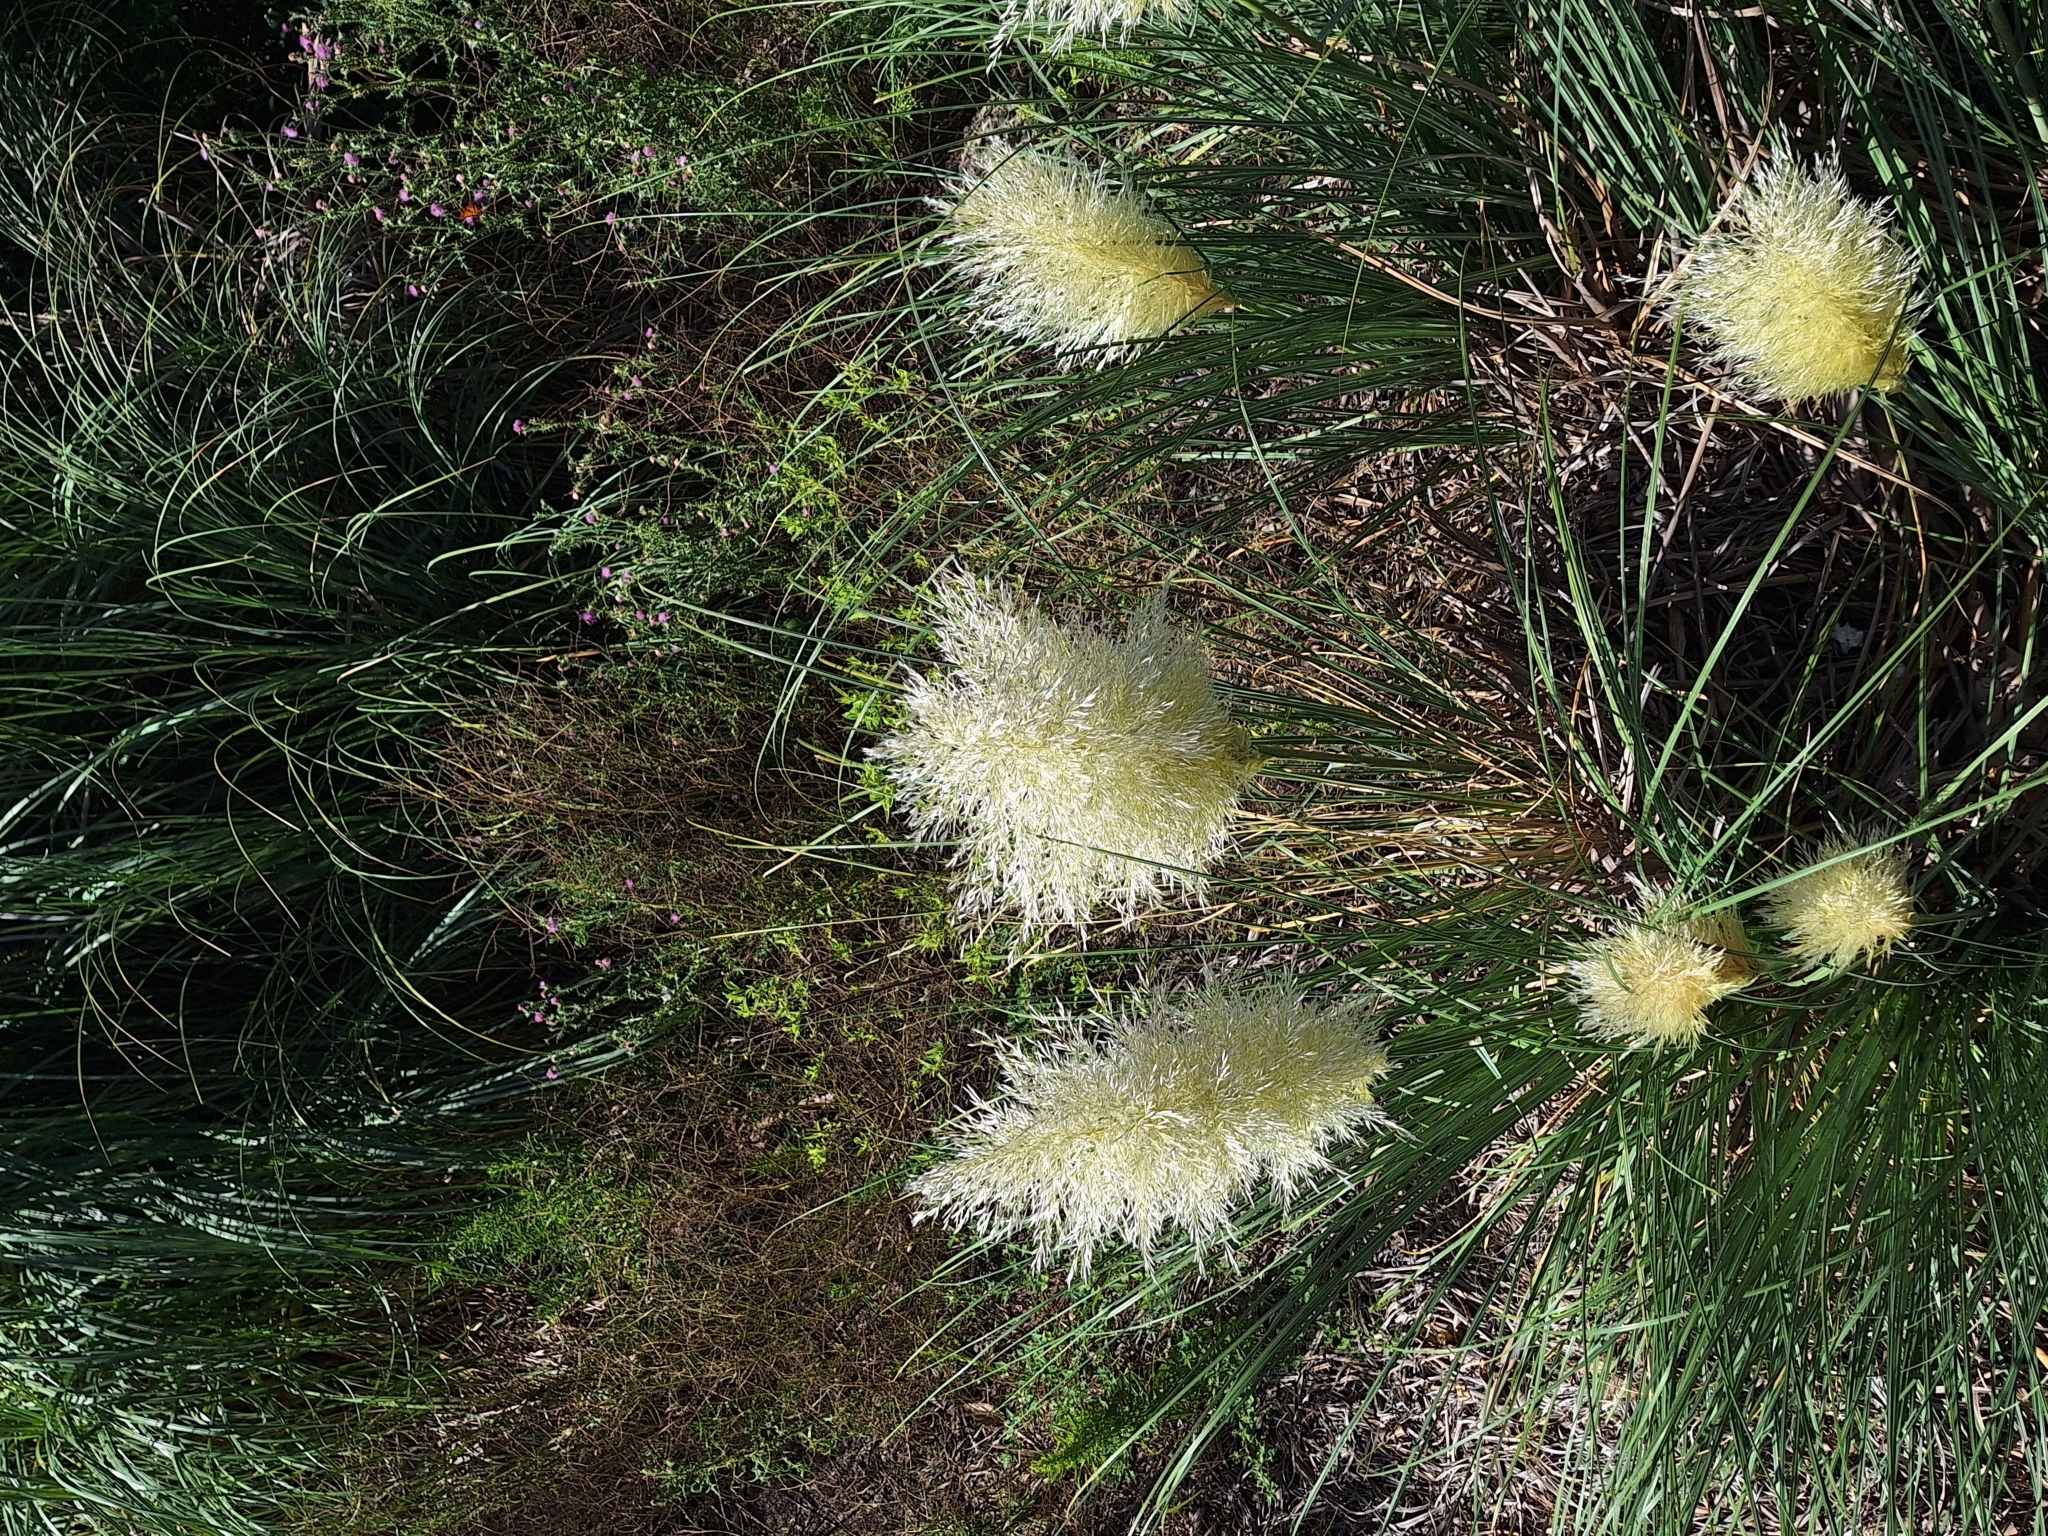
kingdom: Plantae
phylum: Tracheophyta
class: Liliopsida
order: Poales
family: Poaceae
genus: Cortaderia
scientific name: Cortaderia selloana
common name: Uruguayan pampas grass
